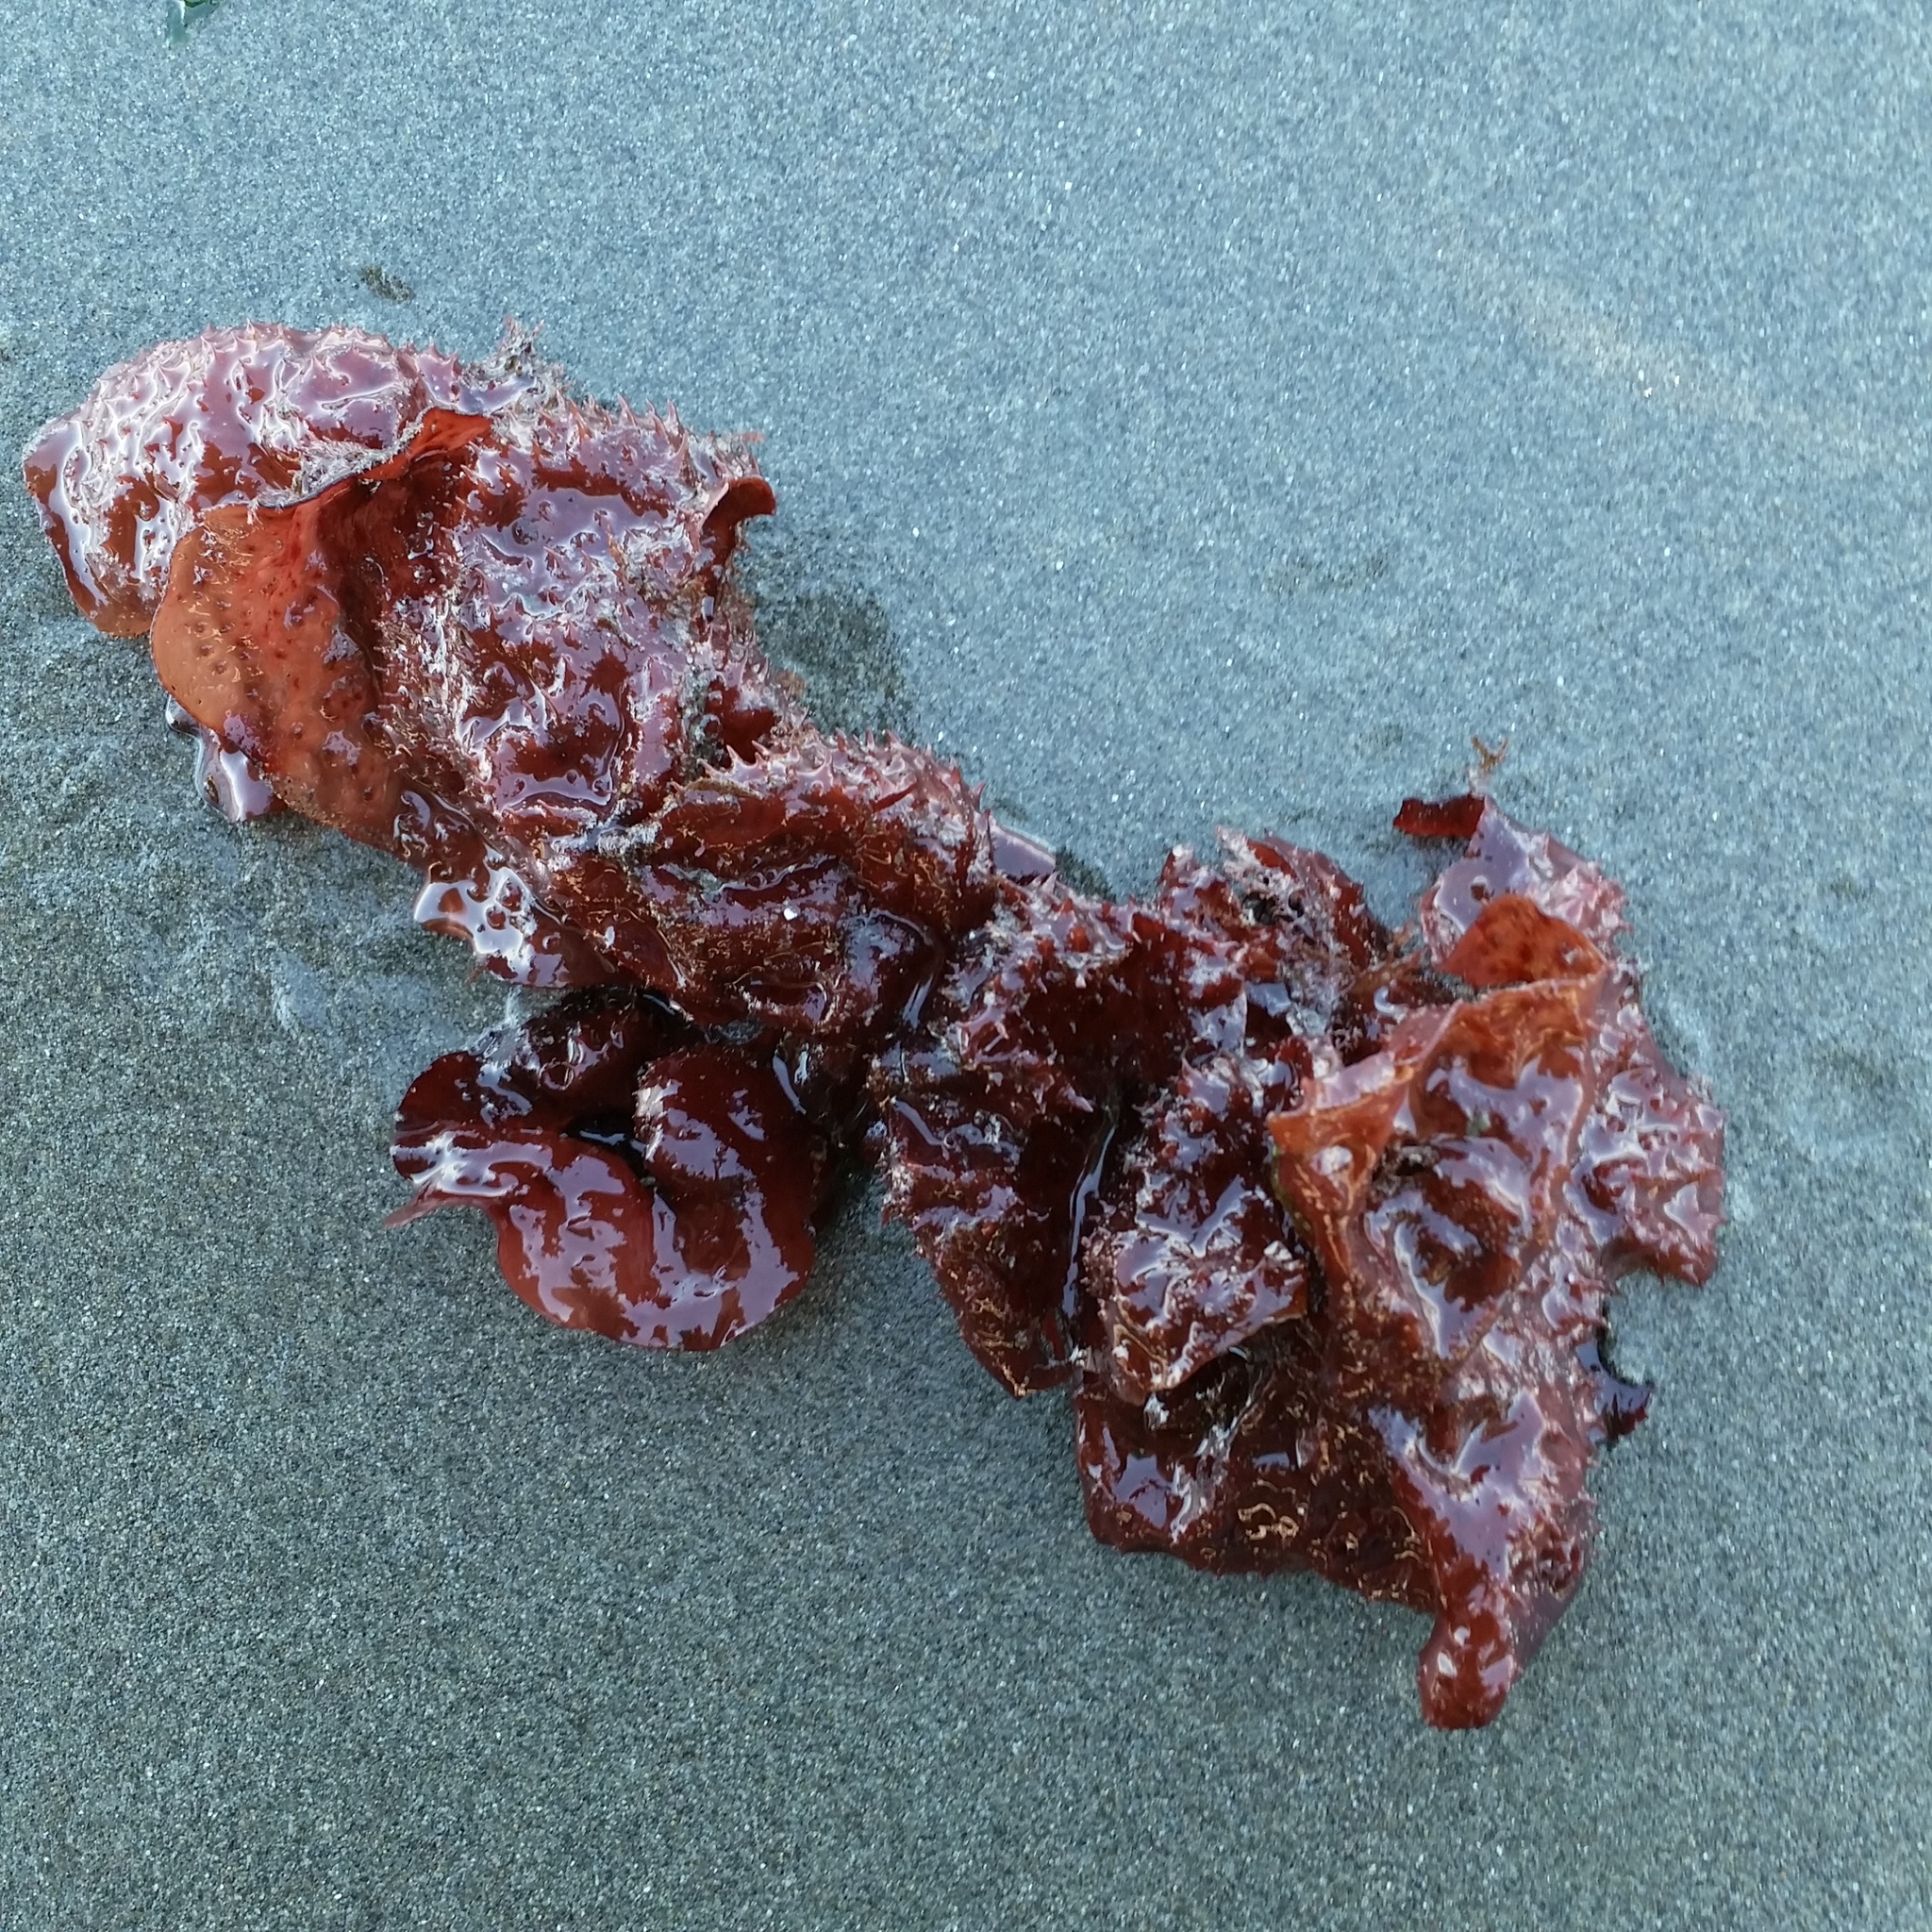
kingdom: Plantae
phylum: Rhodophyta
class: Florideophyceae
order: Gigartinales
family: Gigartinaceae
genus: Chondracanthus
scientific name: Chondracanthus exasperatus
